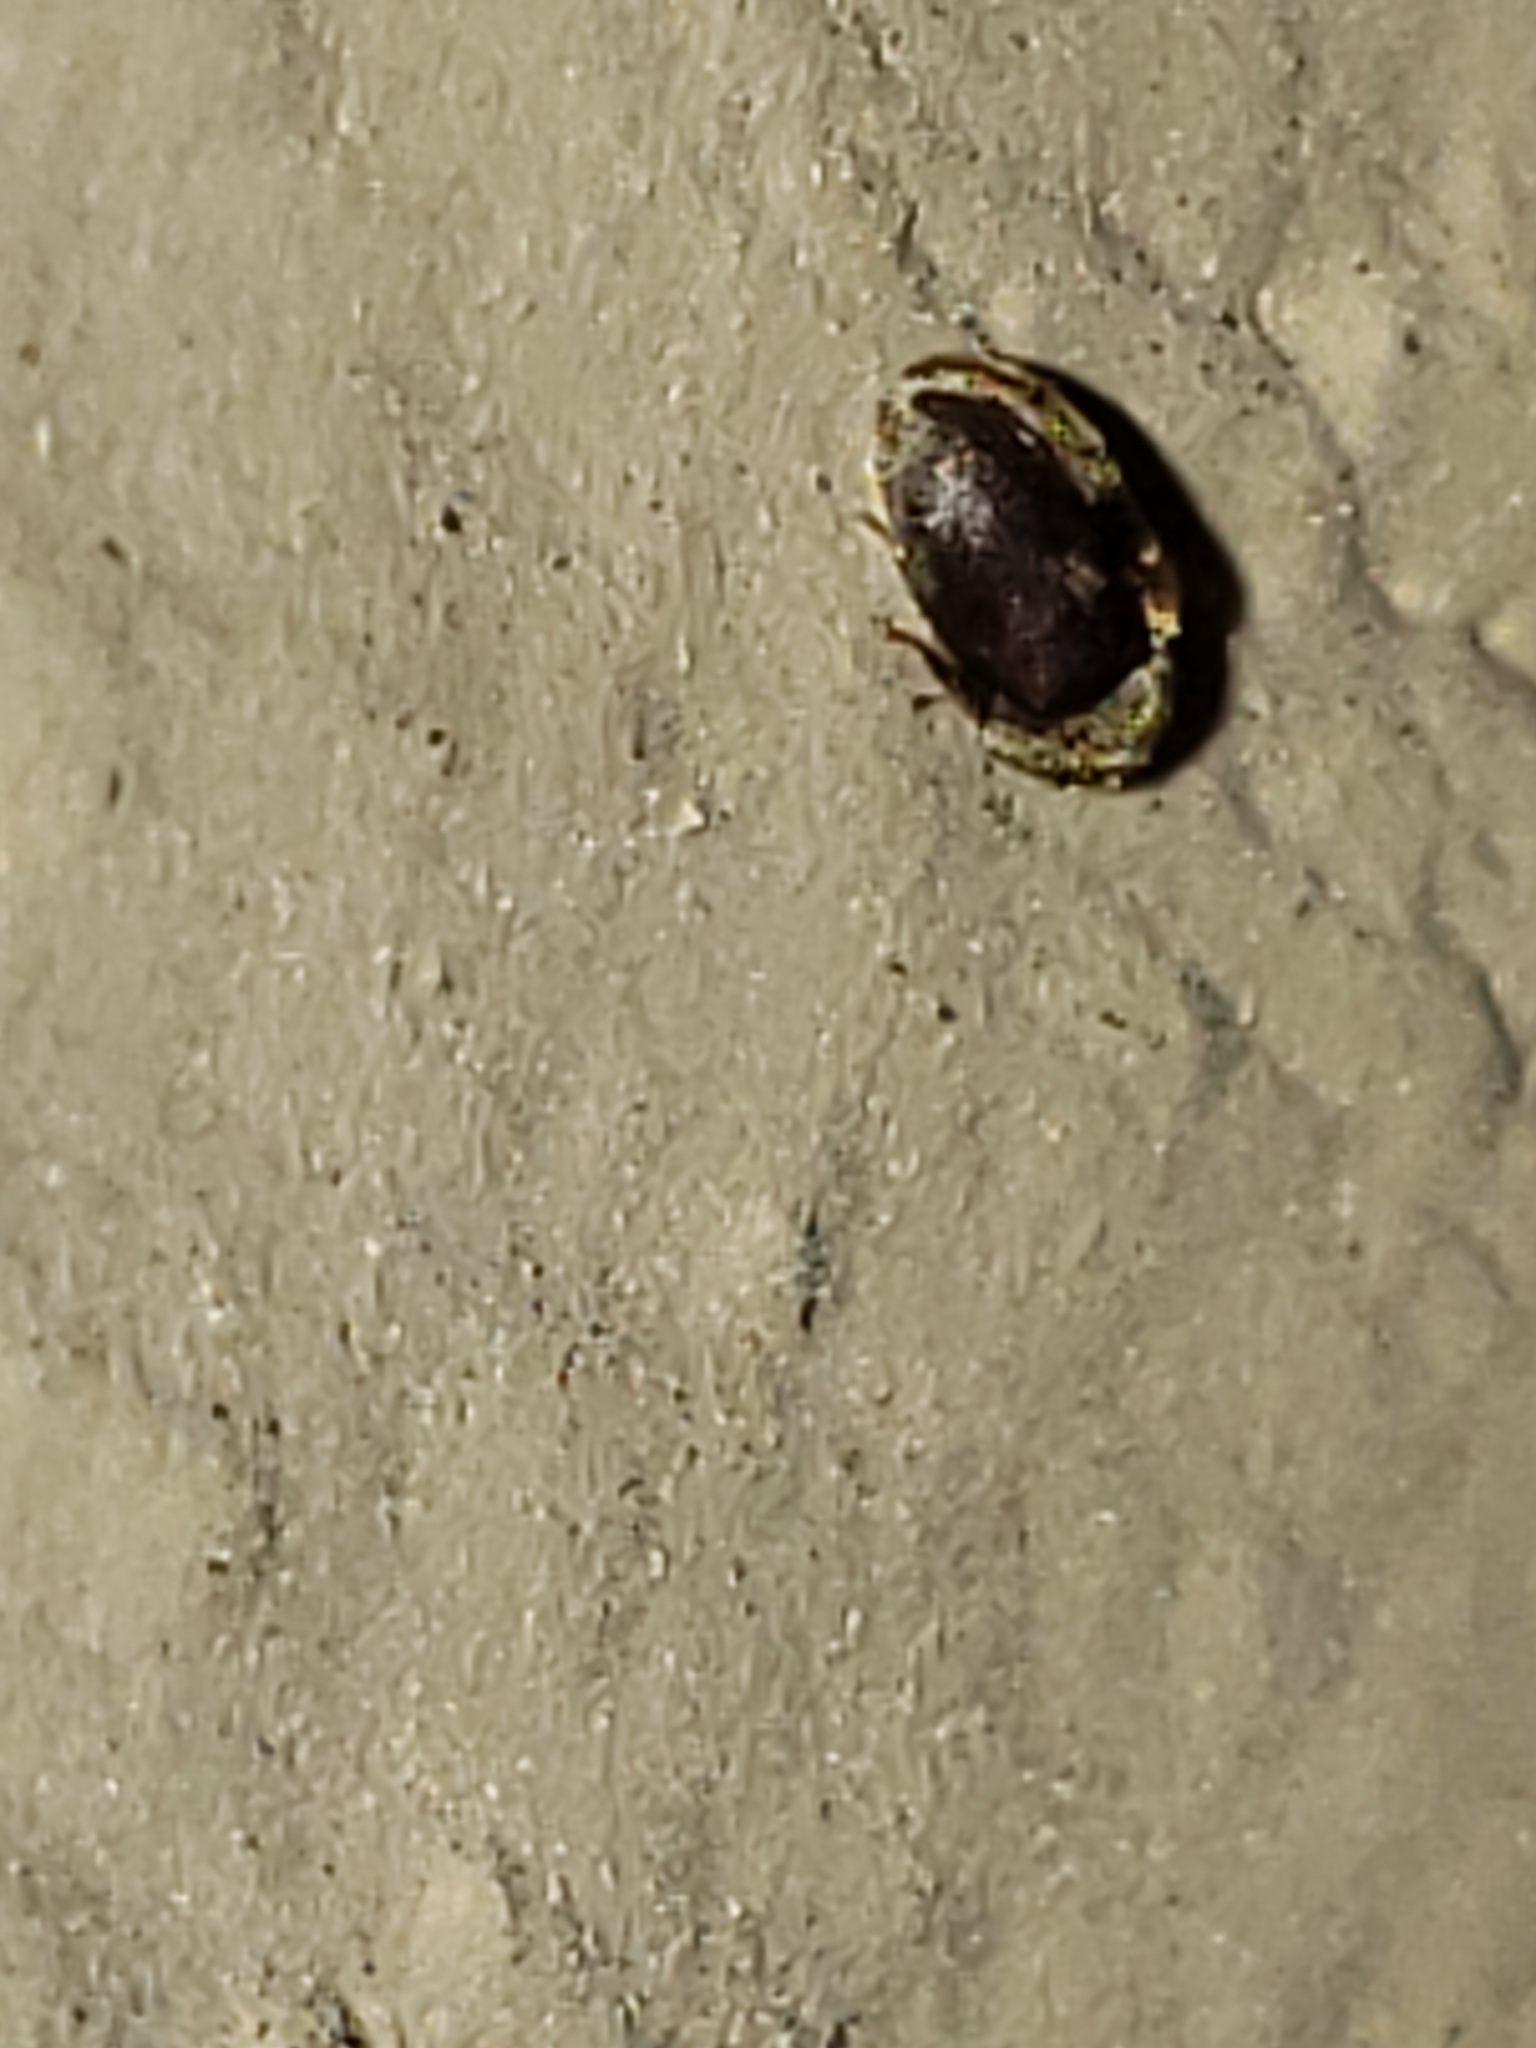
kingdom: Animalia
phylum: Arthropoda
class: Insecta
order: Coleoptera
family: Anobiidae
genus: Protheca
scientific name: Protheca hispida
